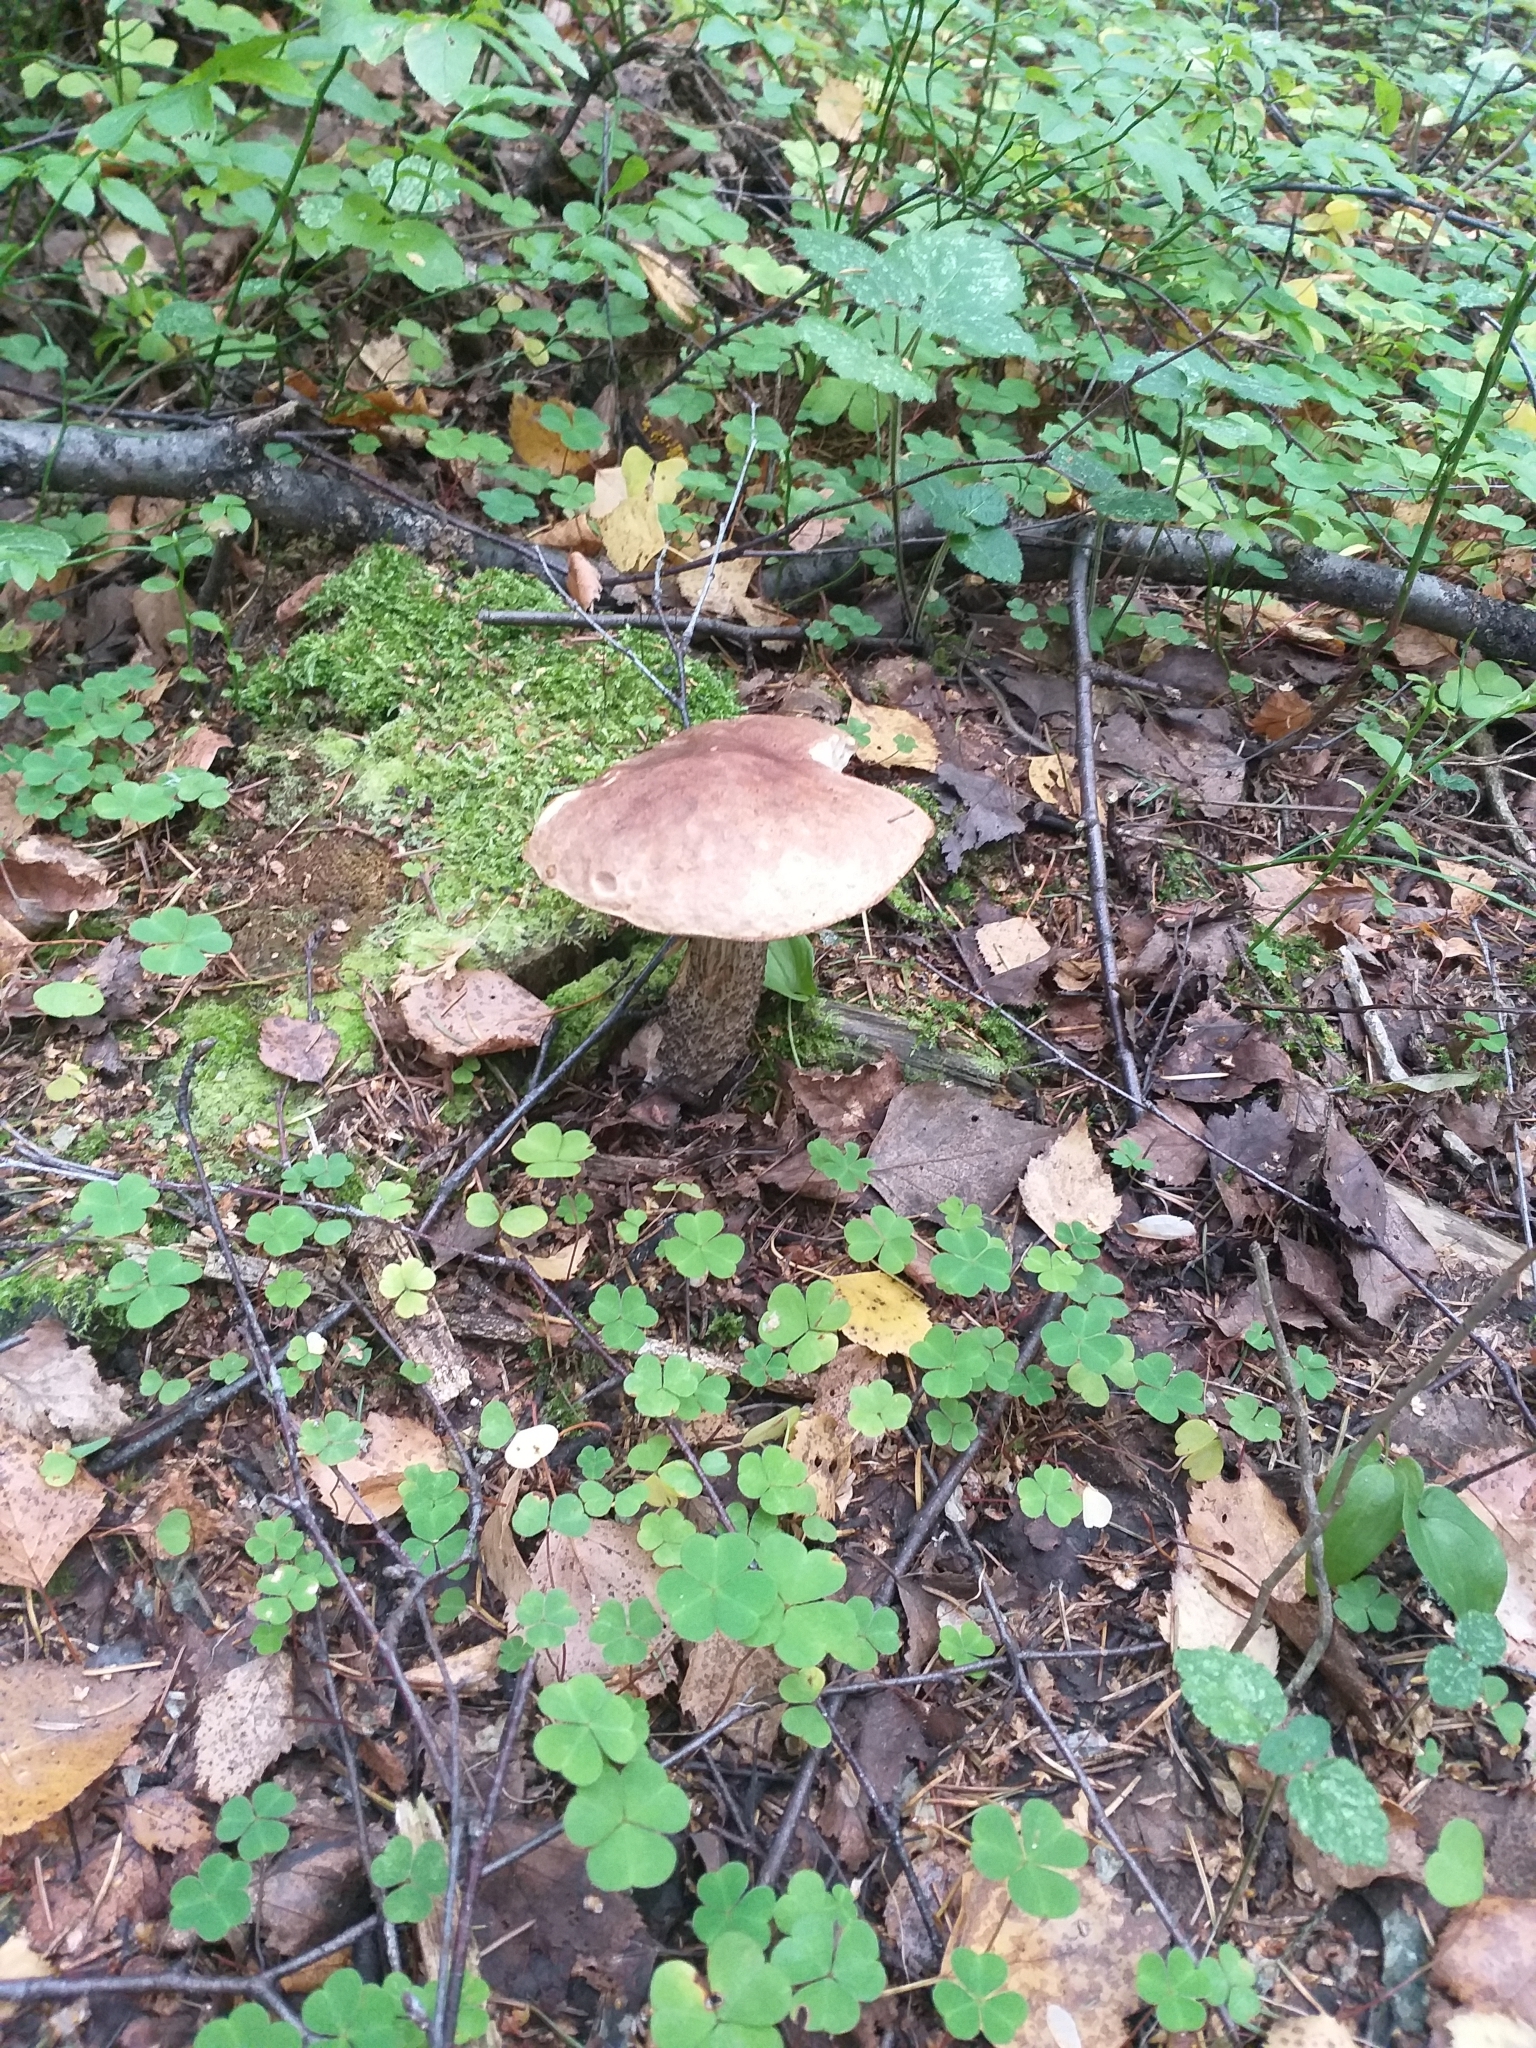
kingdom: Fungi
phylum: Basidiomycota
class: Agaricomycetes
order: Boletales
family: Boletaceae
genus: Leccinum
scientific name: Leccinum scabrum
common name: Blushing bolete
